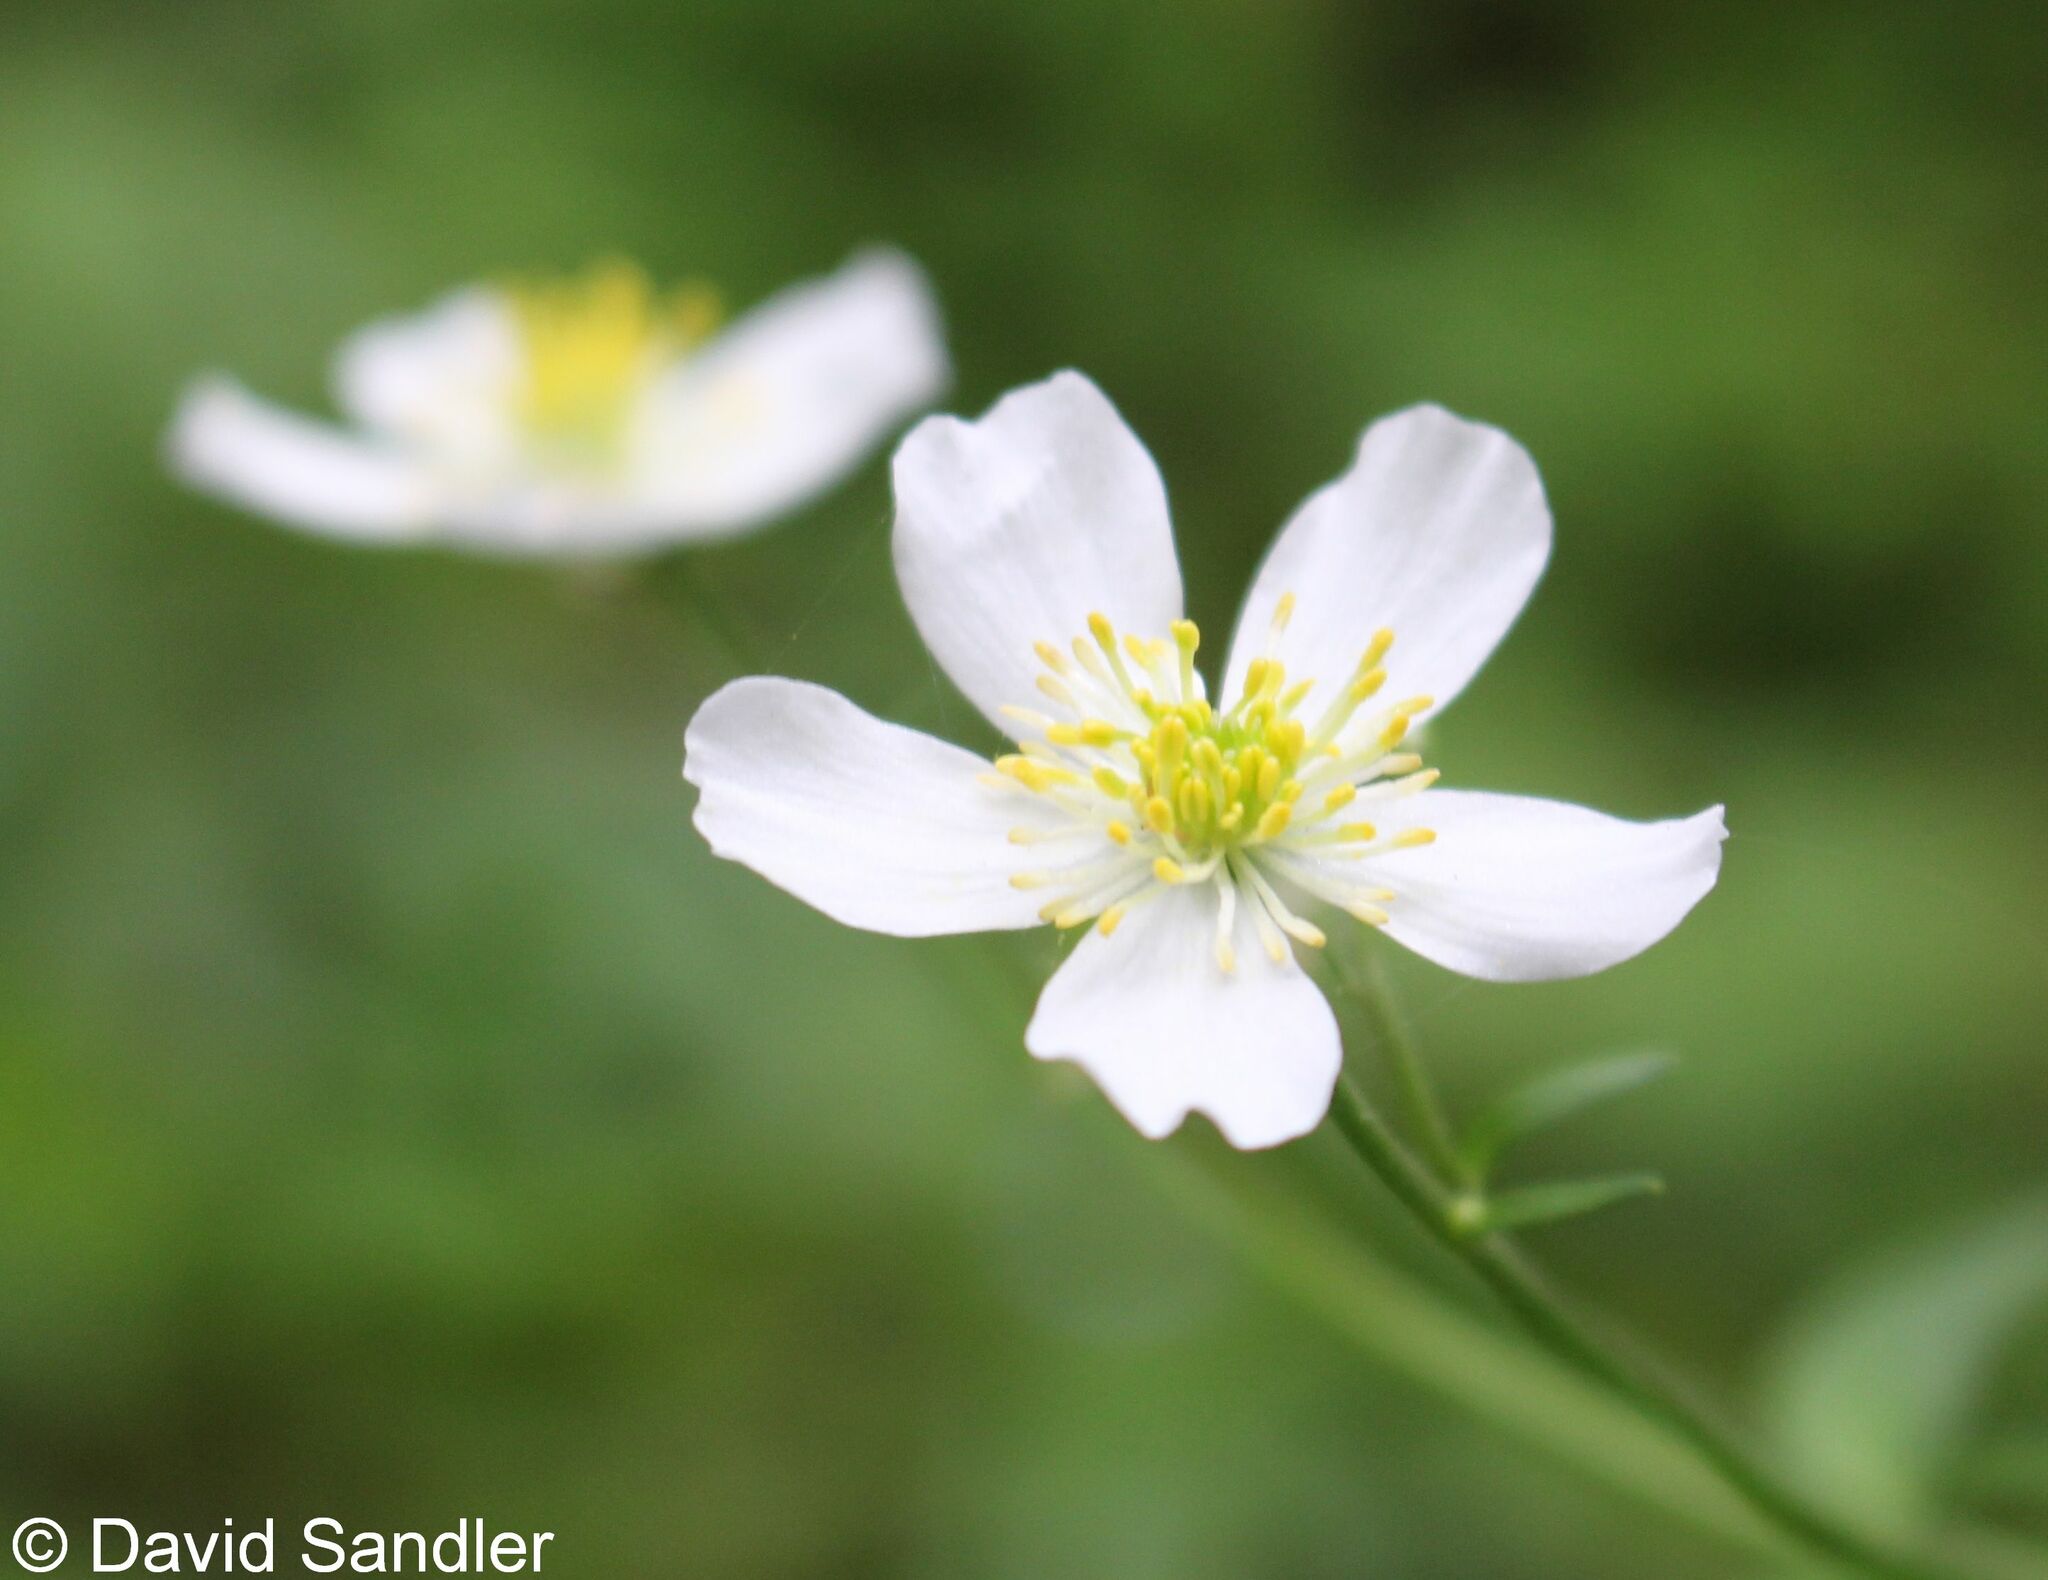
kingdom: Plantae
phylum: Tracheophyta
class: Magnoliopsida
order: Ranunculales
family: Ranunculaceae
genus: Ranunculus
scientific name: Ranunculus aconitifolius
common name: Aconite-leaved buttercup
